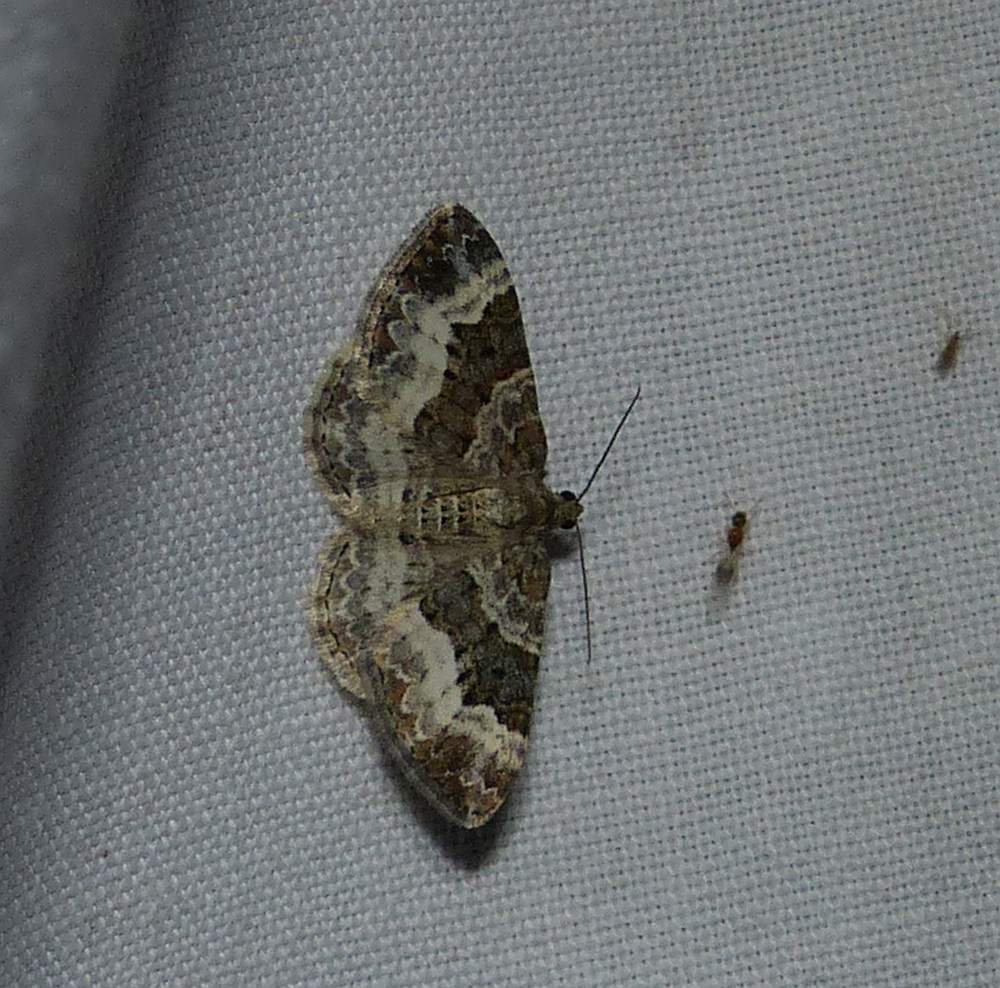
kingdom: Animalia
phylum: Arthropoda
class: Insecta
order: Lepidoptera
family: Geometridae
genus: Epirrhoe
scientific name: Epirrhoe alternata
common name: Common carpet
